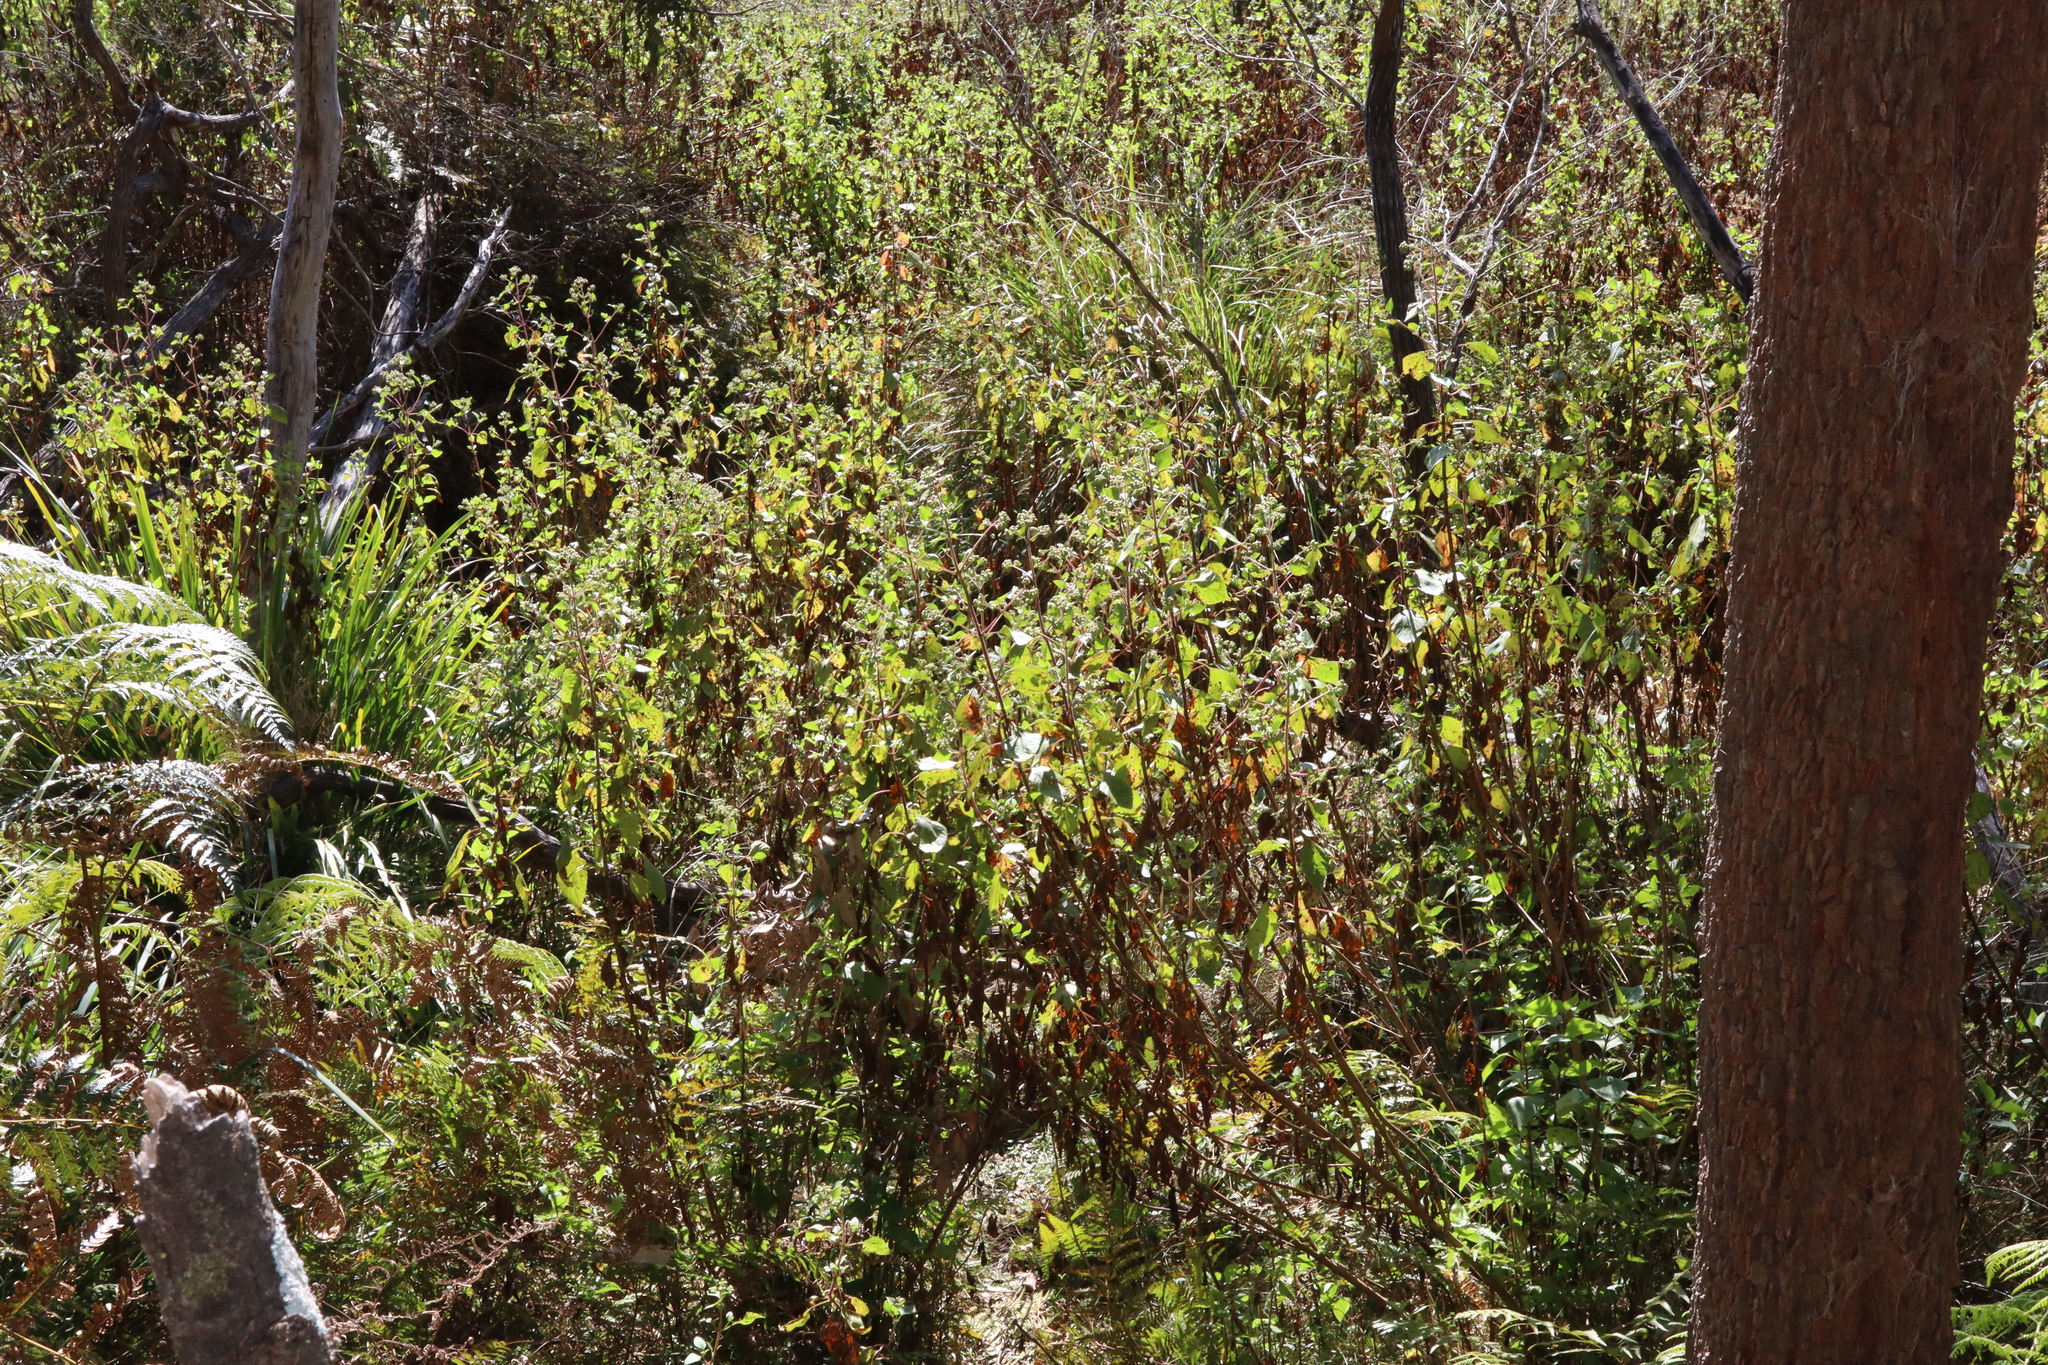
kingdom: Plantae
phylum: Tracheophyta
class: Magnoliopsida
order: Asterales
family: Asteraceae
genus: Ageratina
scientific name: Ageratina adenophora
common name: Sticky snakeroot
